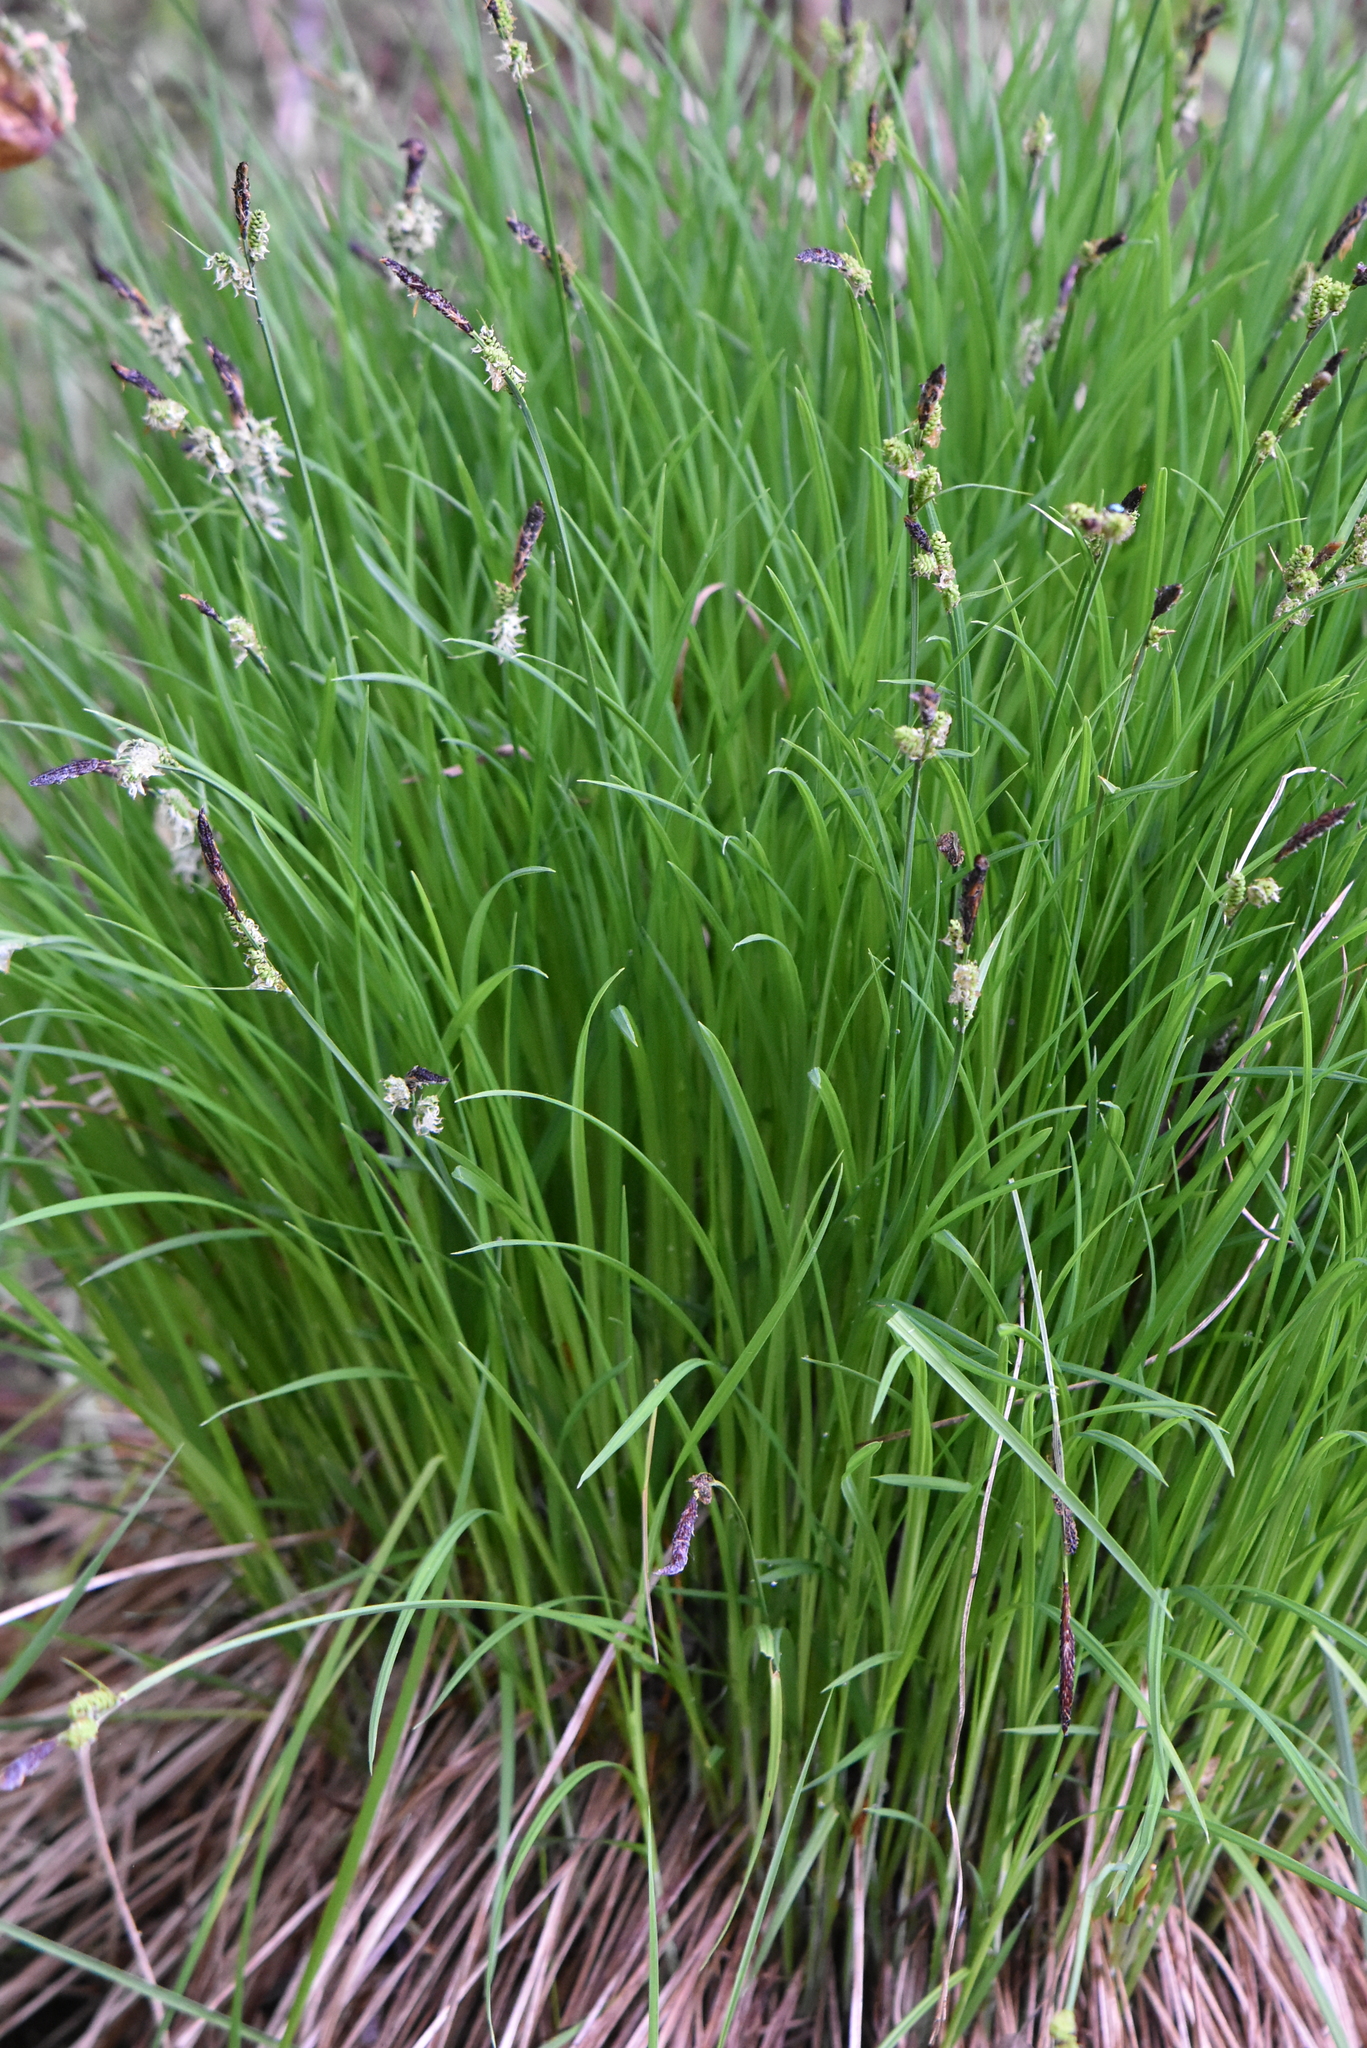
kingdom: Plantae
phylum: Tracheophyta
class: Liliopsida
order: Poales
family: Cyperaceae
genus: Carex
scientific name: Carex cespitosa
